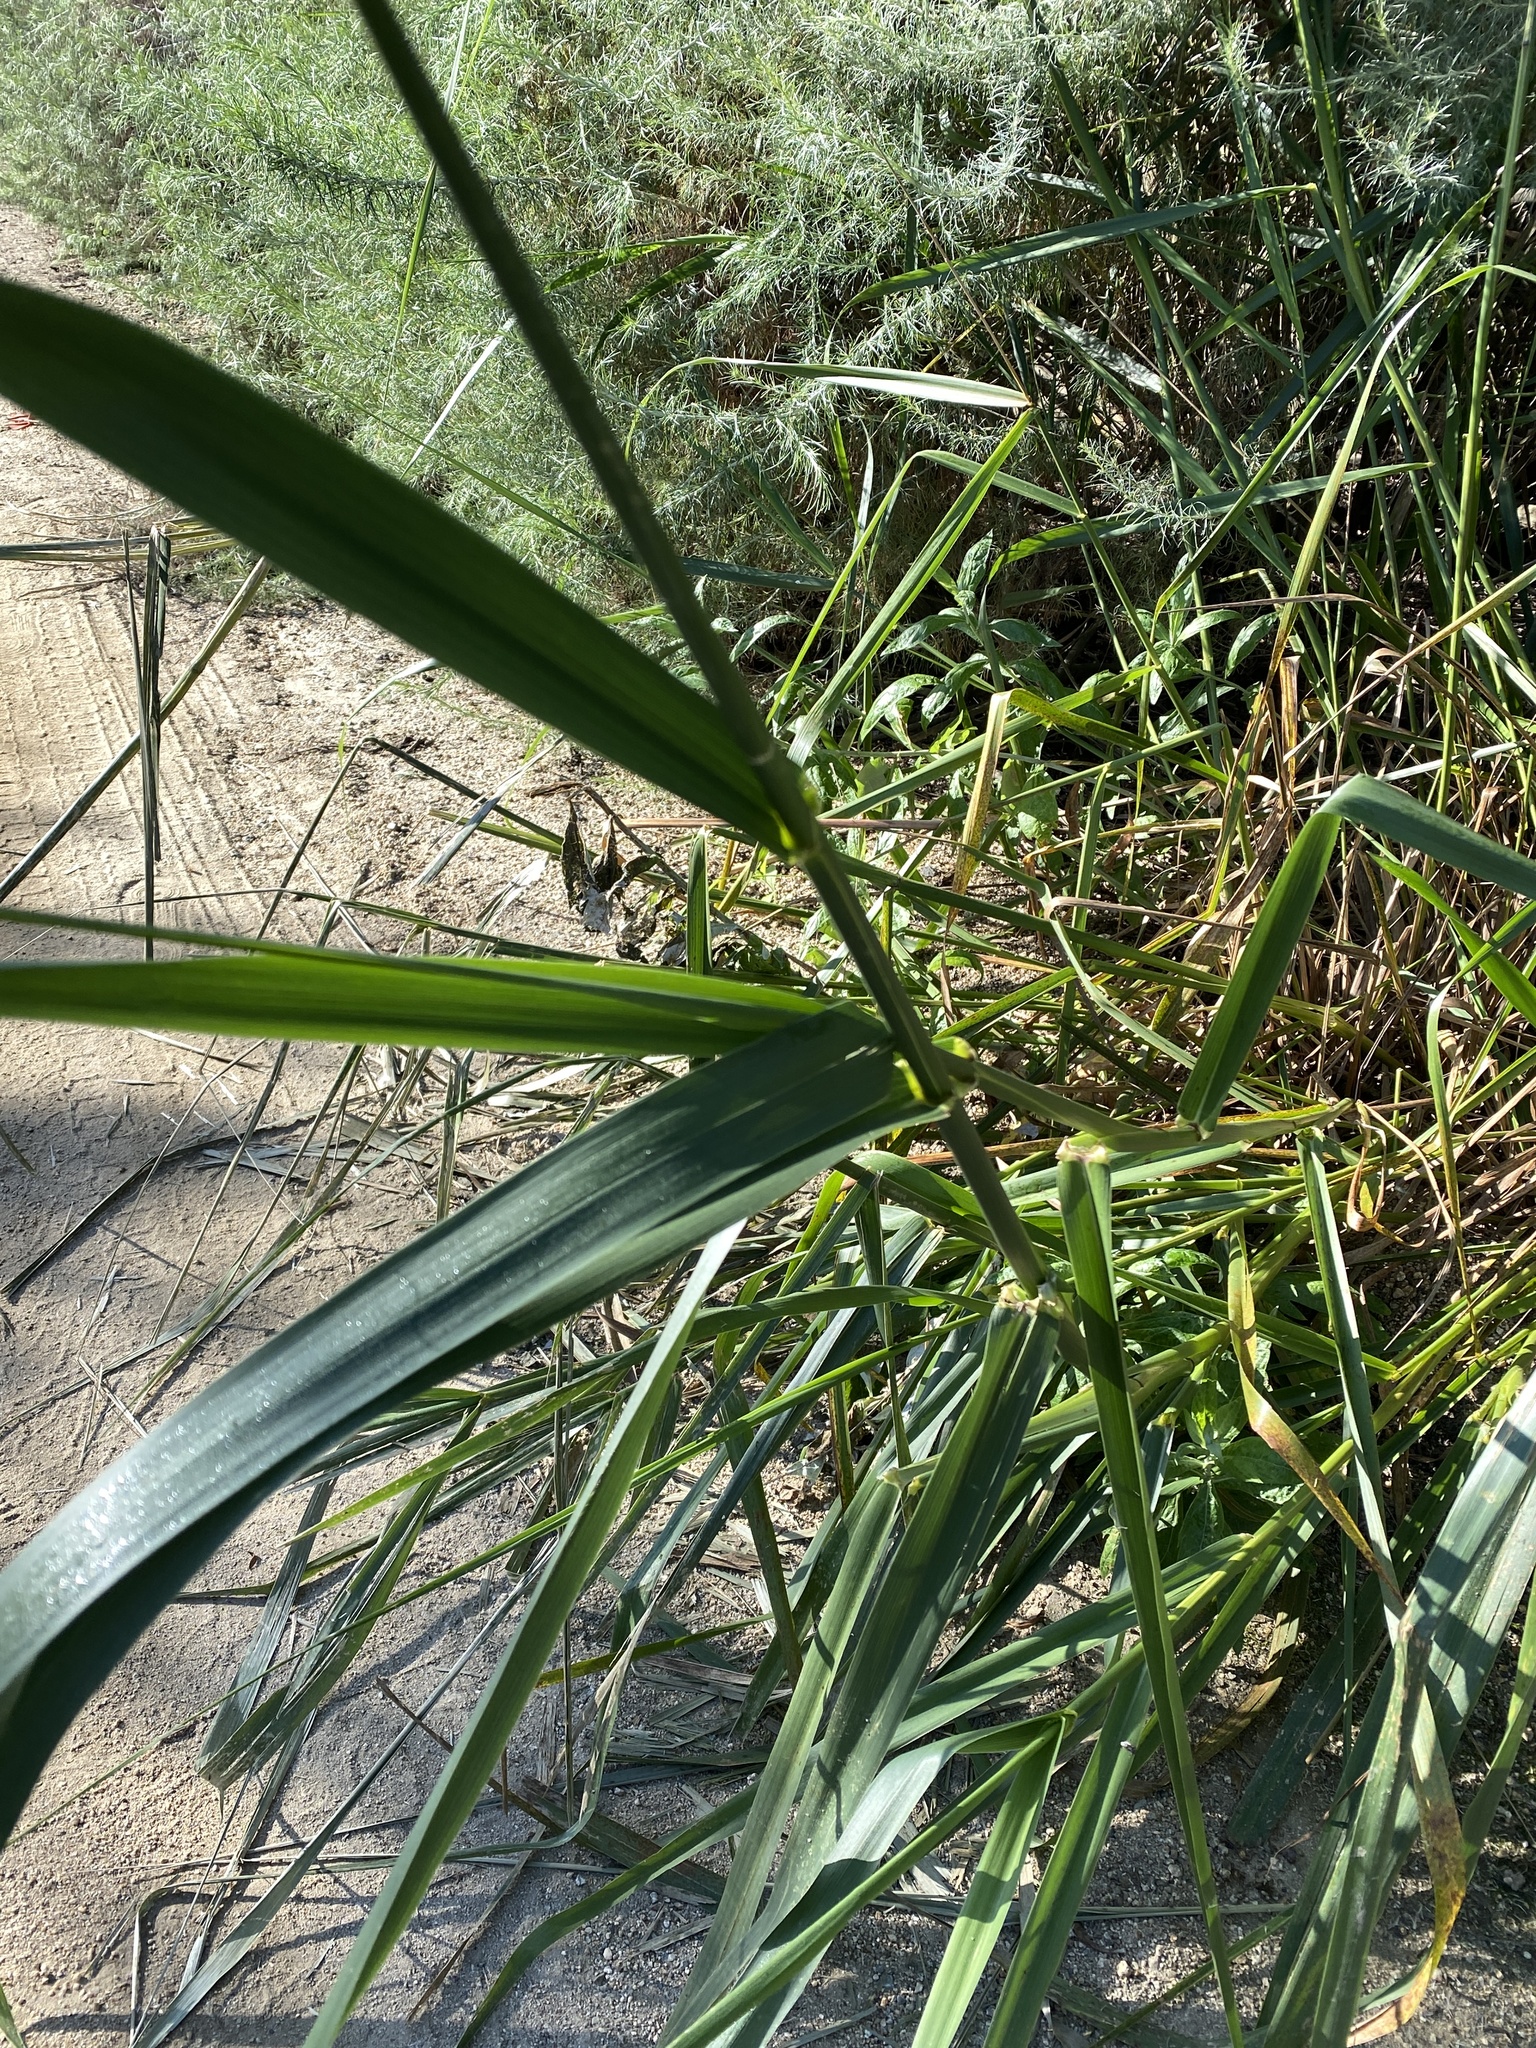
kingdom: Plantae
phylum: Tracheophyta
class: Liliopsida
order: Poales
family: Poaceae
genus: Leymus
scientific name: Leymus condensatus
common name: Giant wild rye
